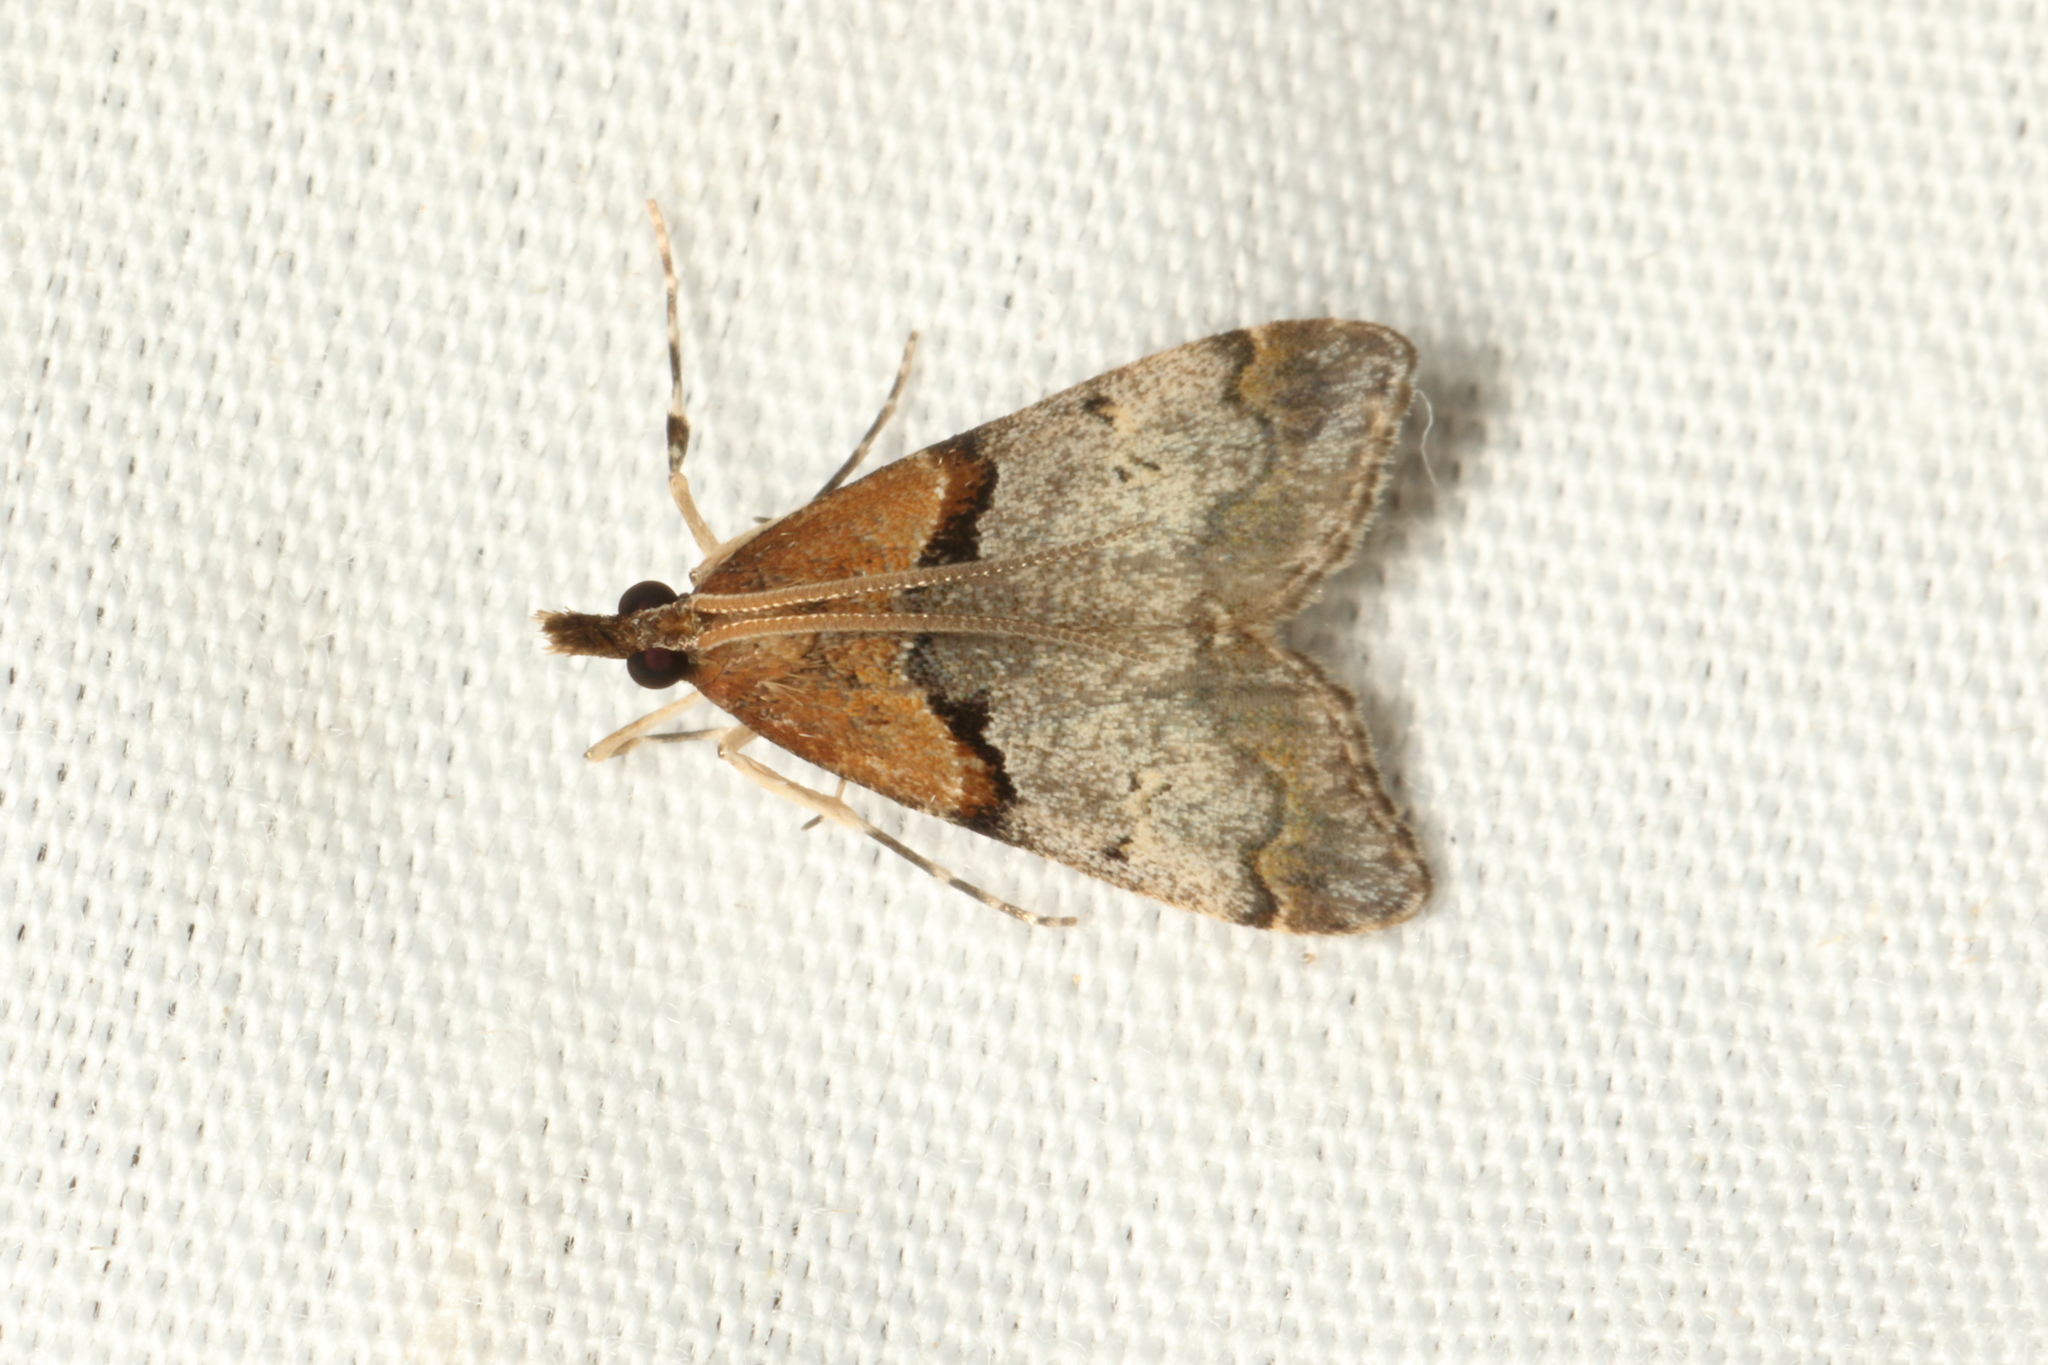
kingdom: Animalia
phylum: Arthropoda
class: Insecta
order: Lepidoptera
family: Crambidae
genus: Antiscopa
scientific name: Antiscopa epicomia
